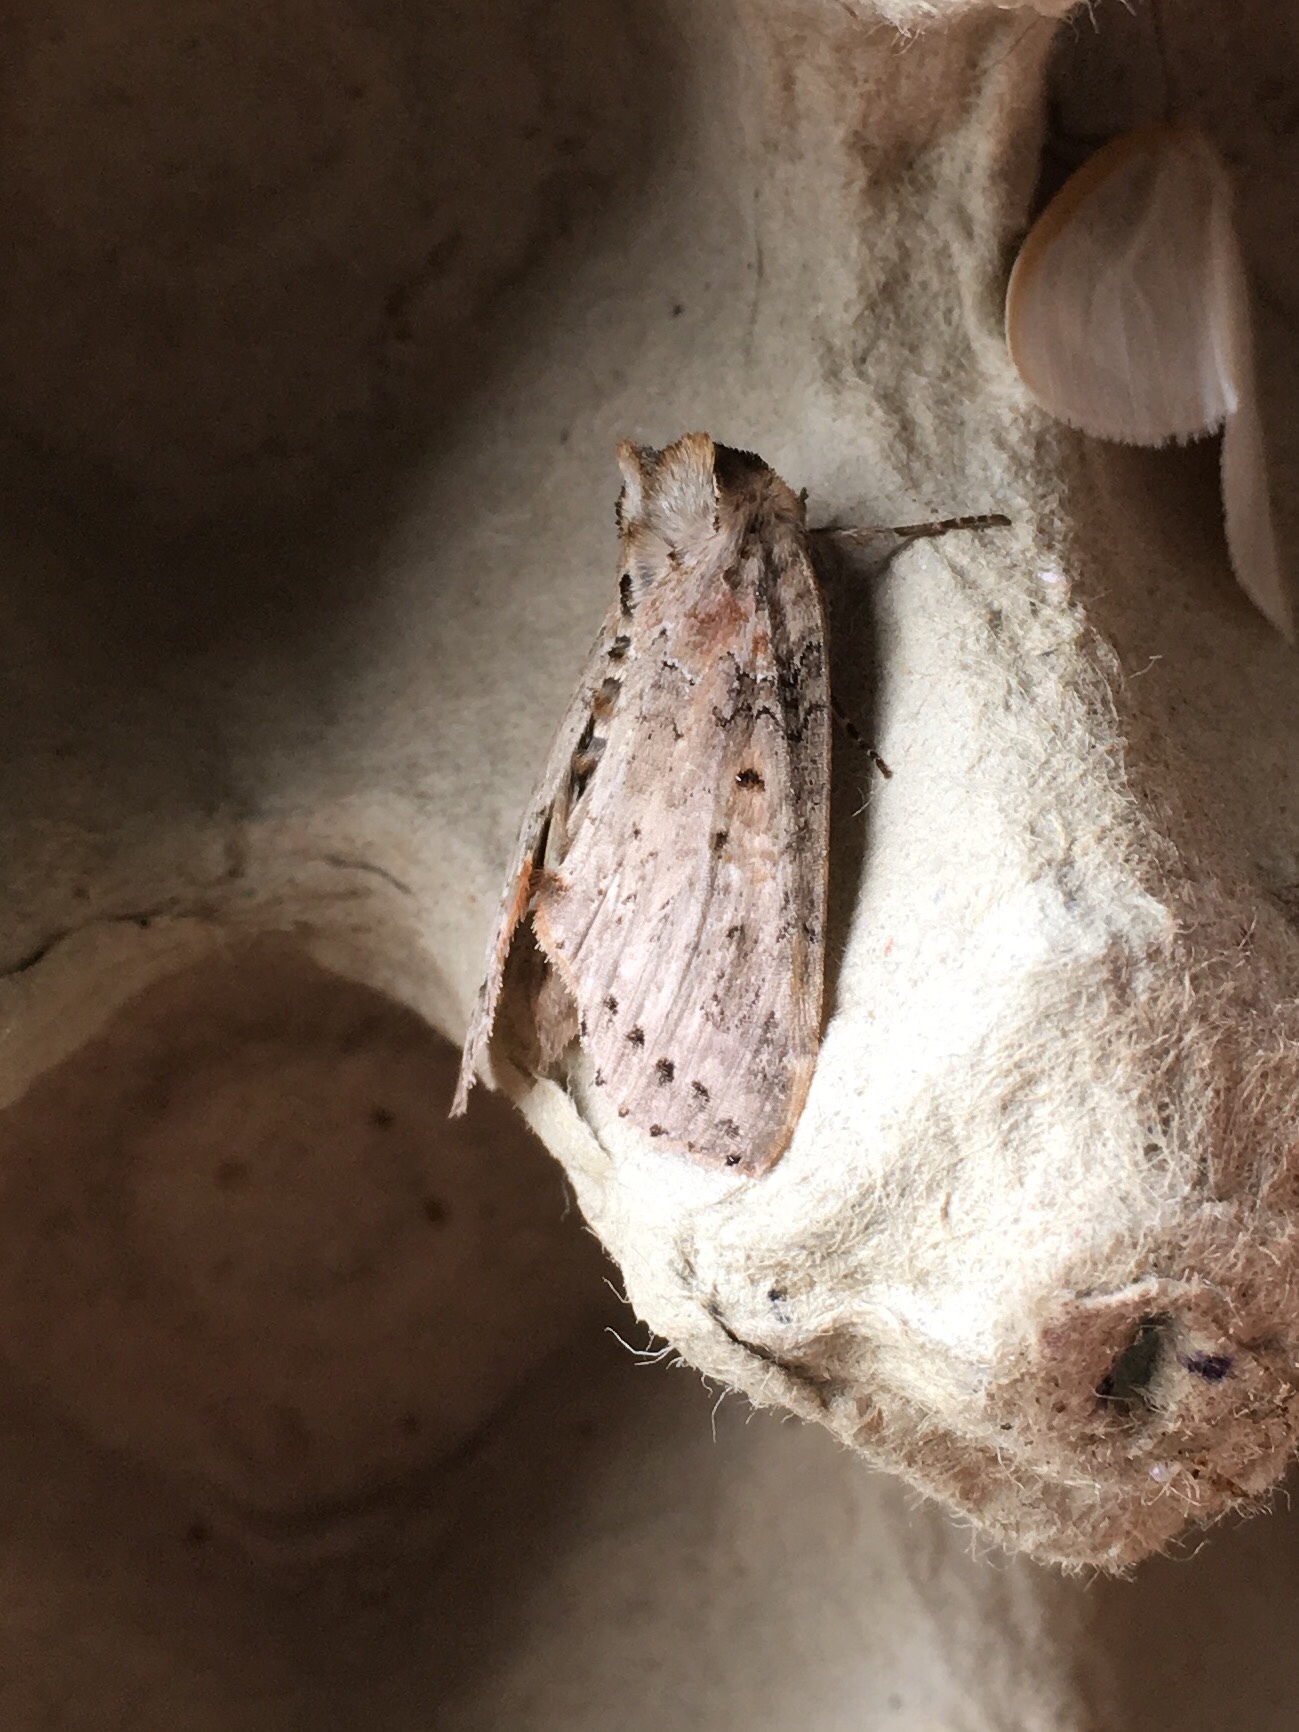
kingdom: Animalia
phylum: Arthropoda
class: Insecta
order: Lepidoptera
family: Drepanidae
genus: Pseudothyatira
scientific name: Pseudothyatira cymatophoroides
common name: Tufted thyatirid moth
